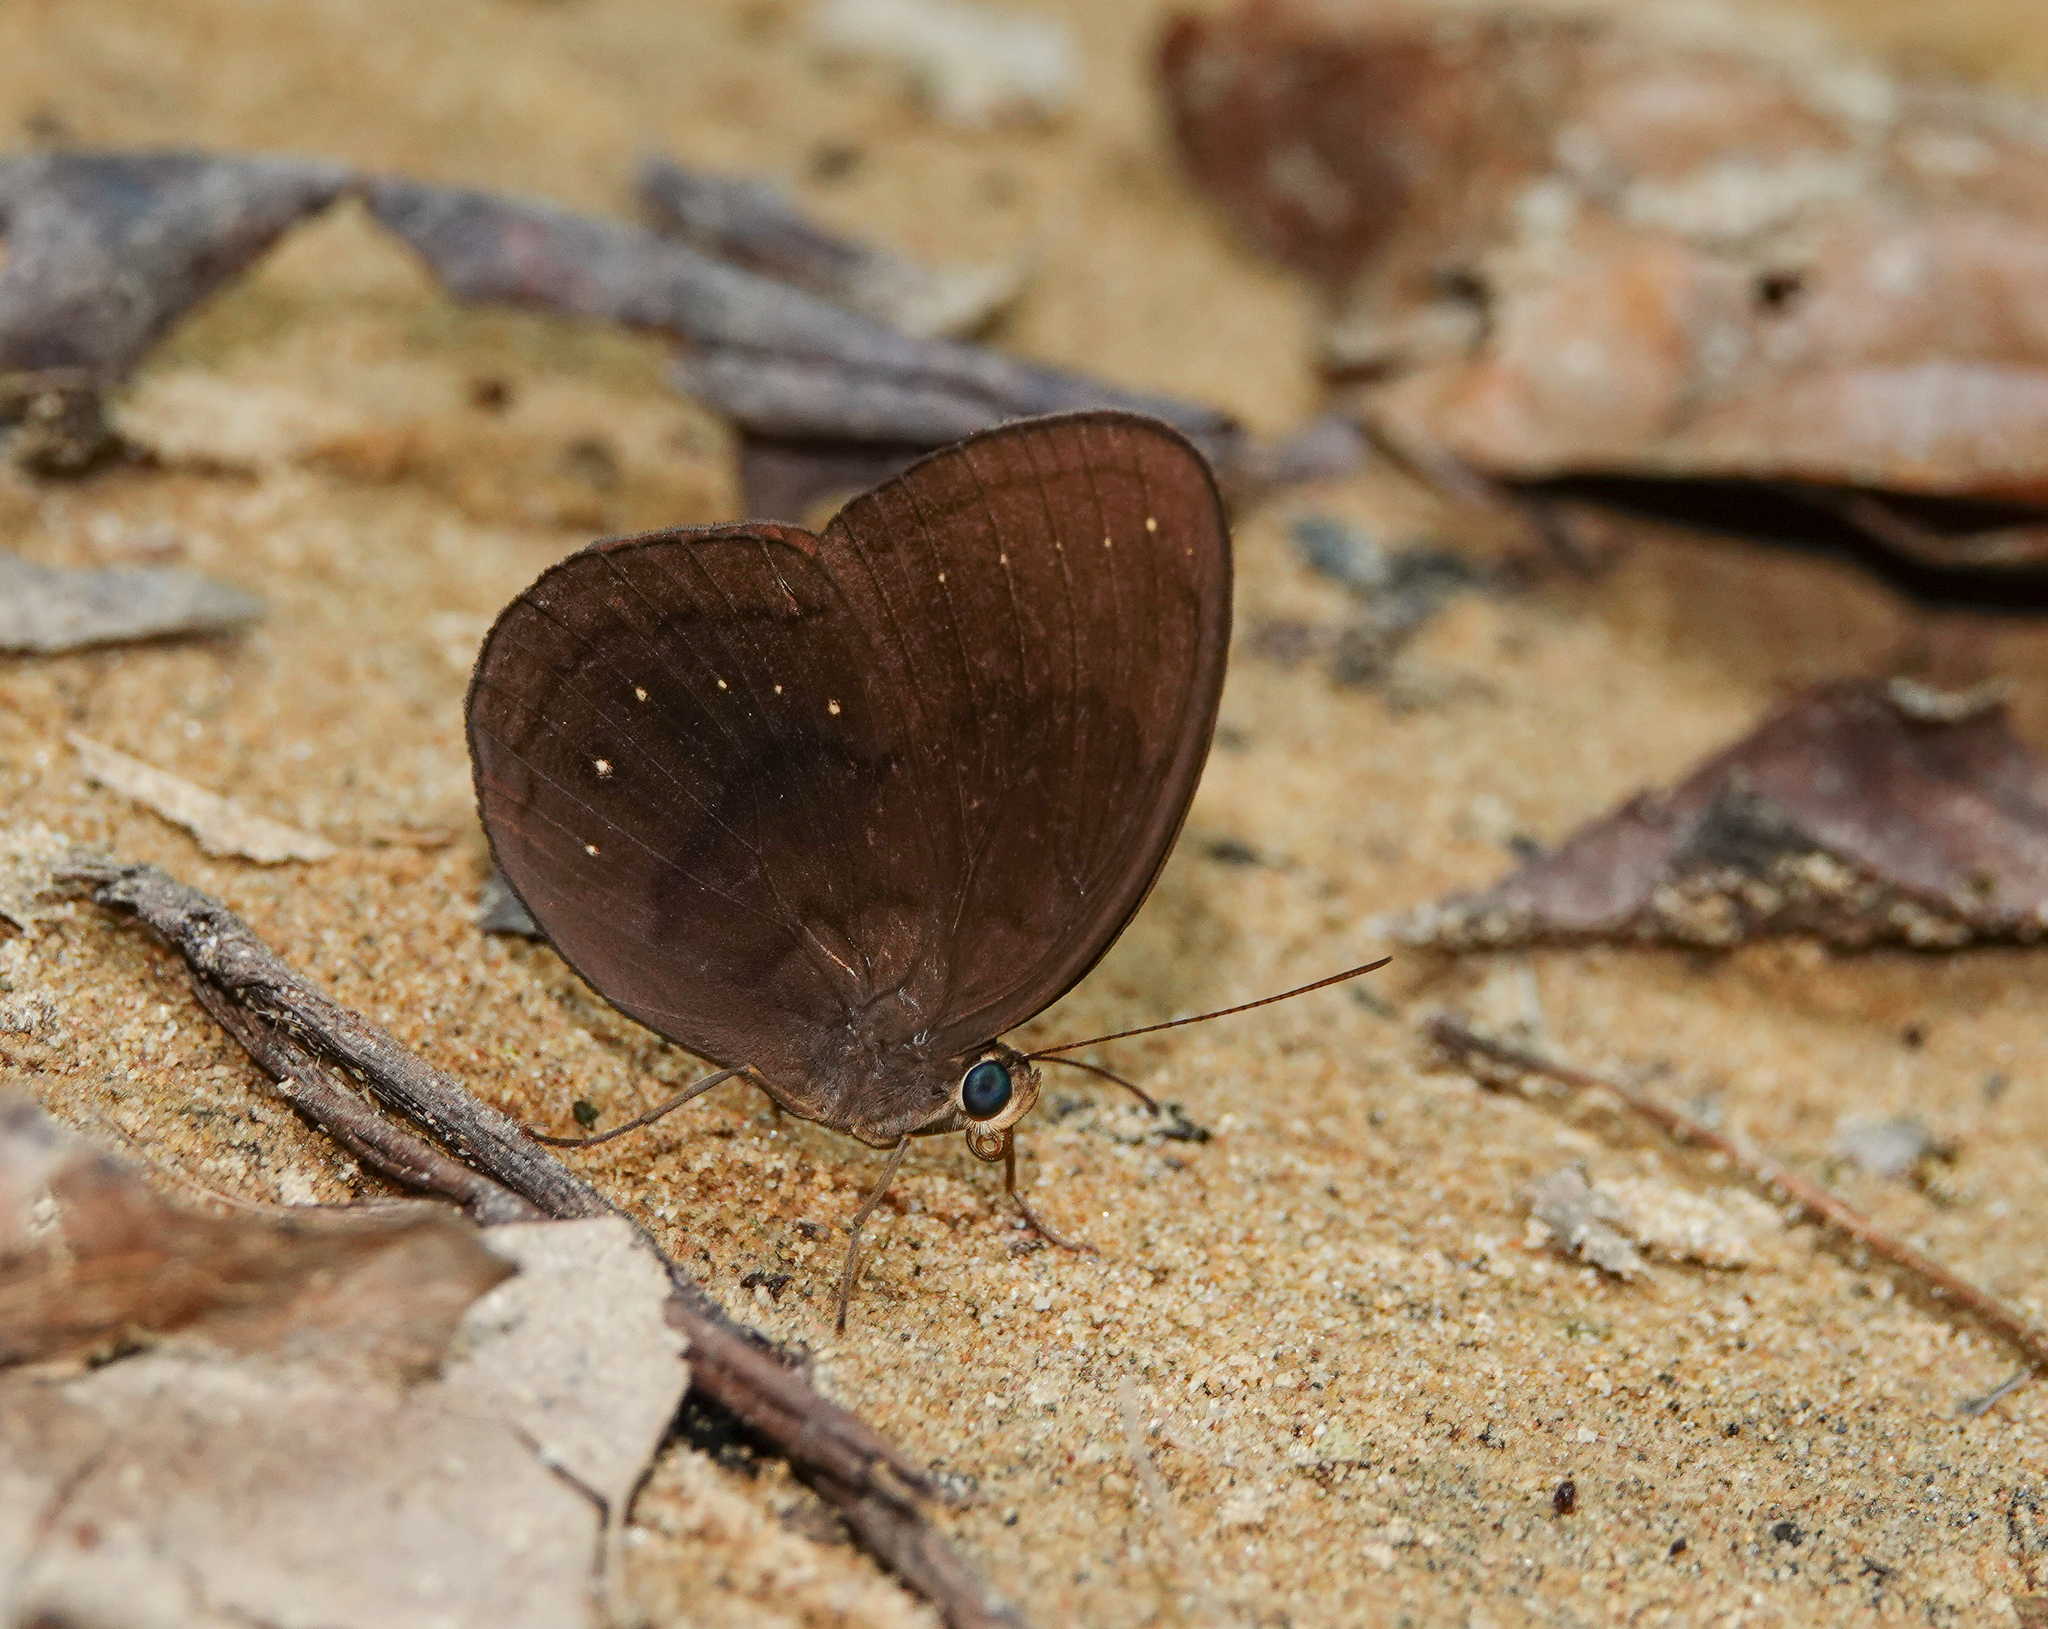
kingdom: Animalia
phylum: Arthropoda
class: Insecta
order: Lepidoptera
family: Nymphalidae
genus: Faunis
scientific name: Faunis canens
